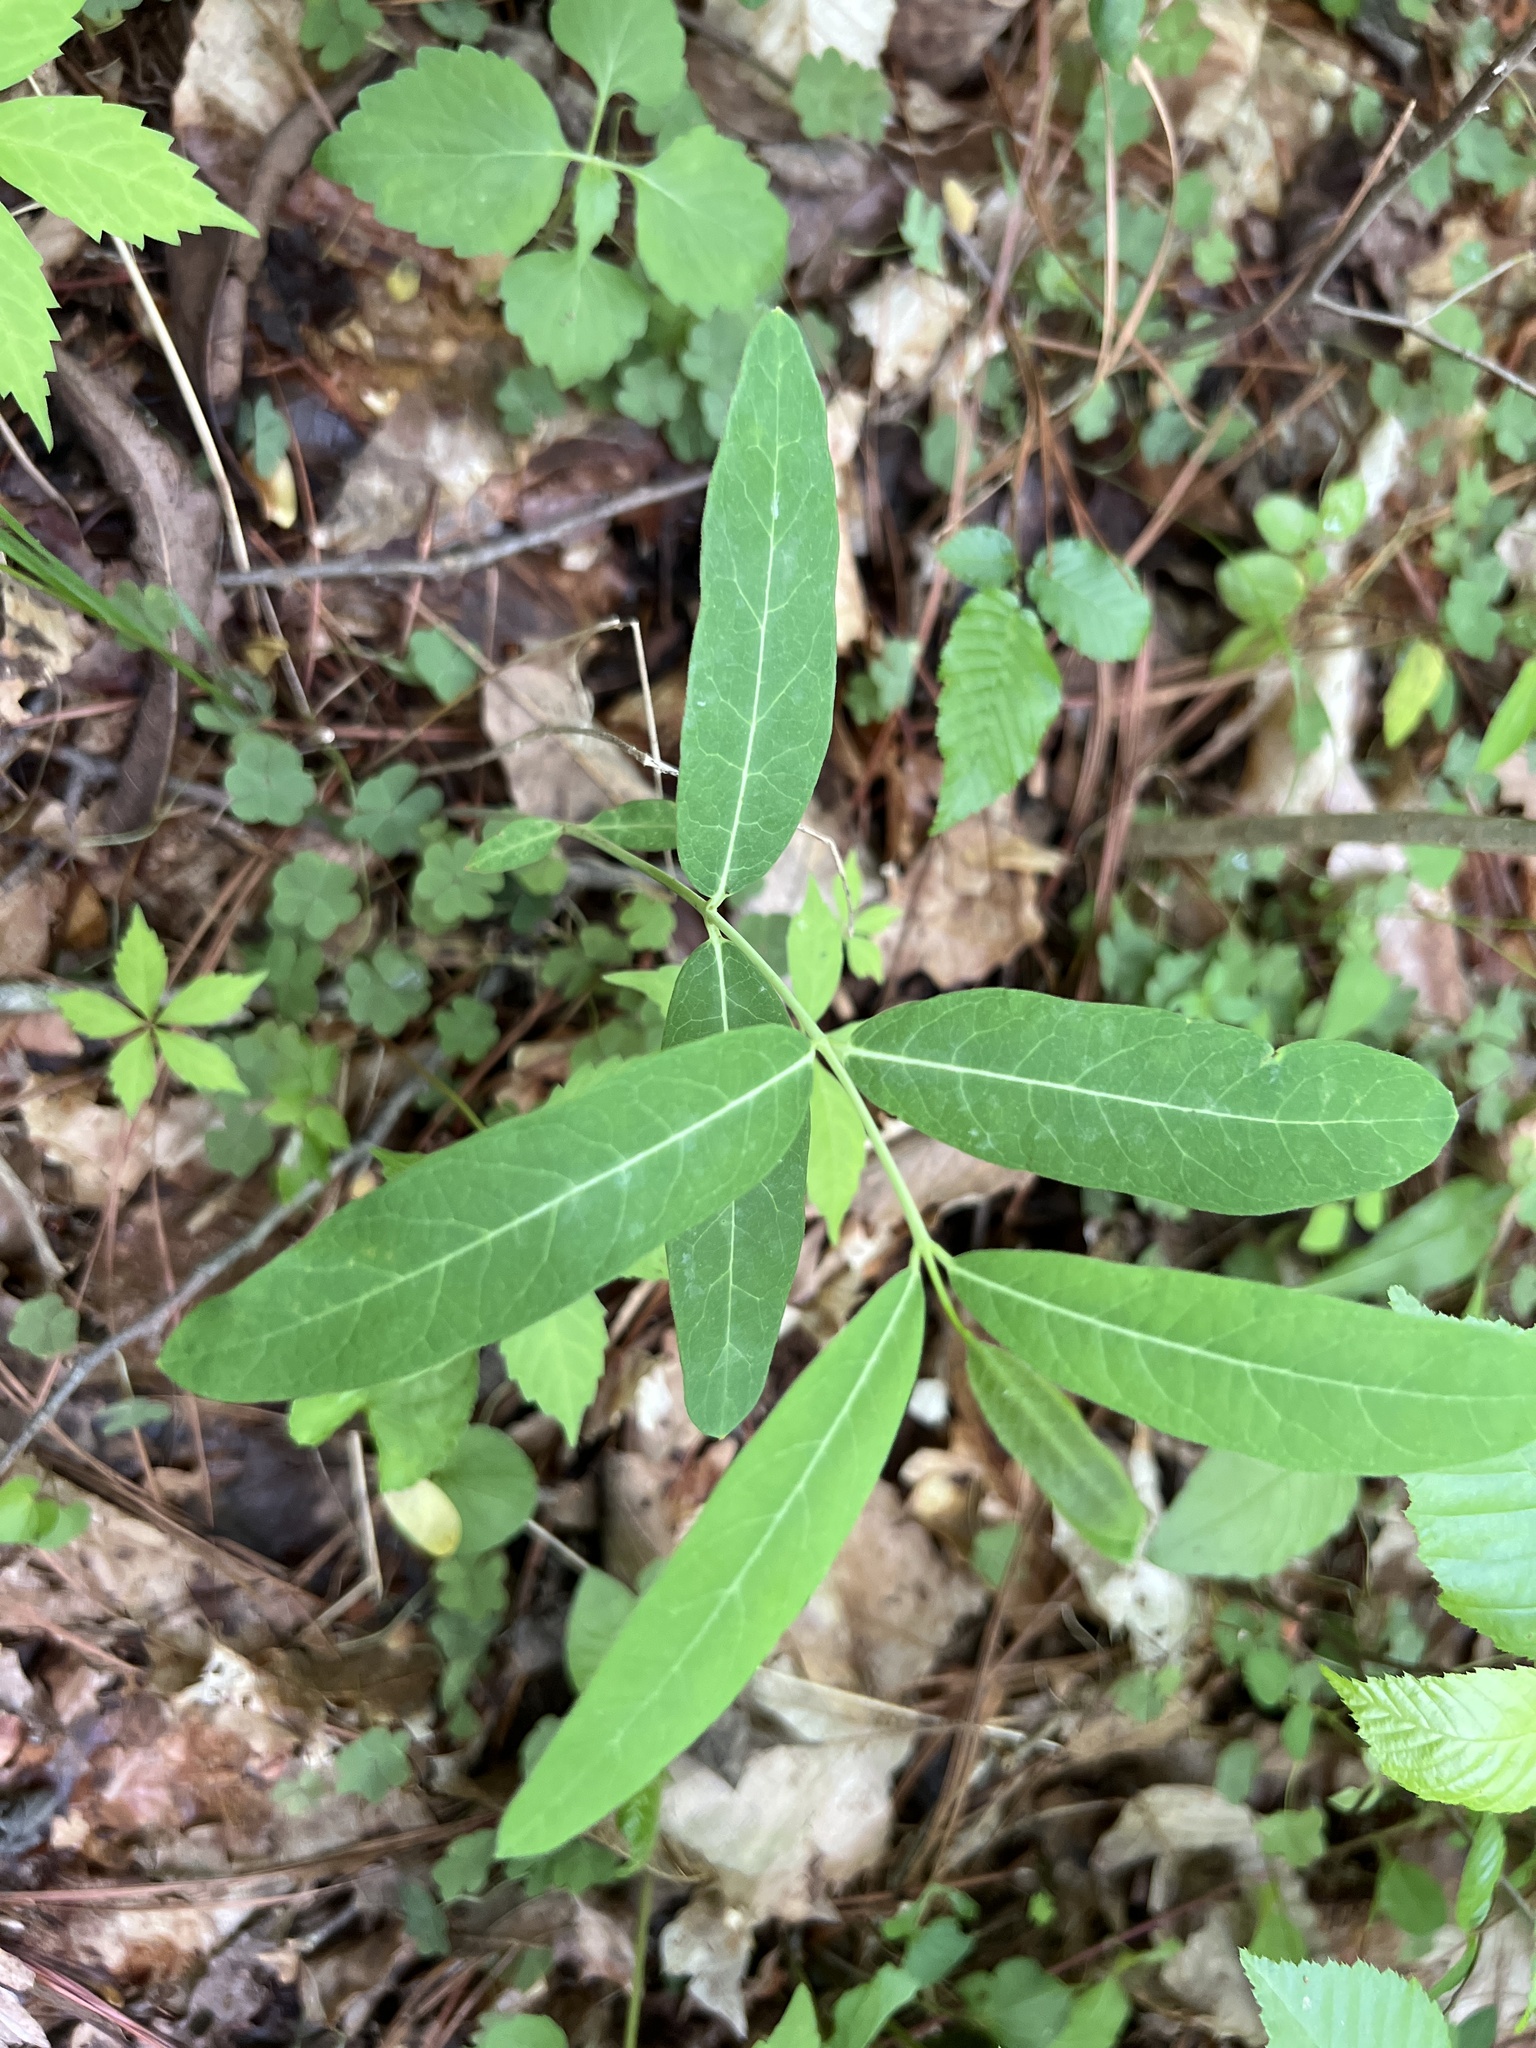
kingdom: Plantae
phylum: Tracheophyta
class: Magnoliopsida
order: Gentianales
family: Apocynaceae
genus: Apocynum
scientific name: Apocynum cannabinum
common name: Hemp dogbane
